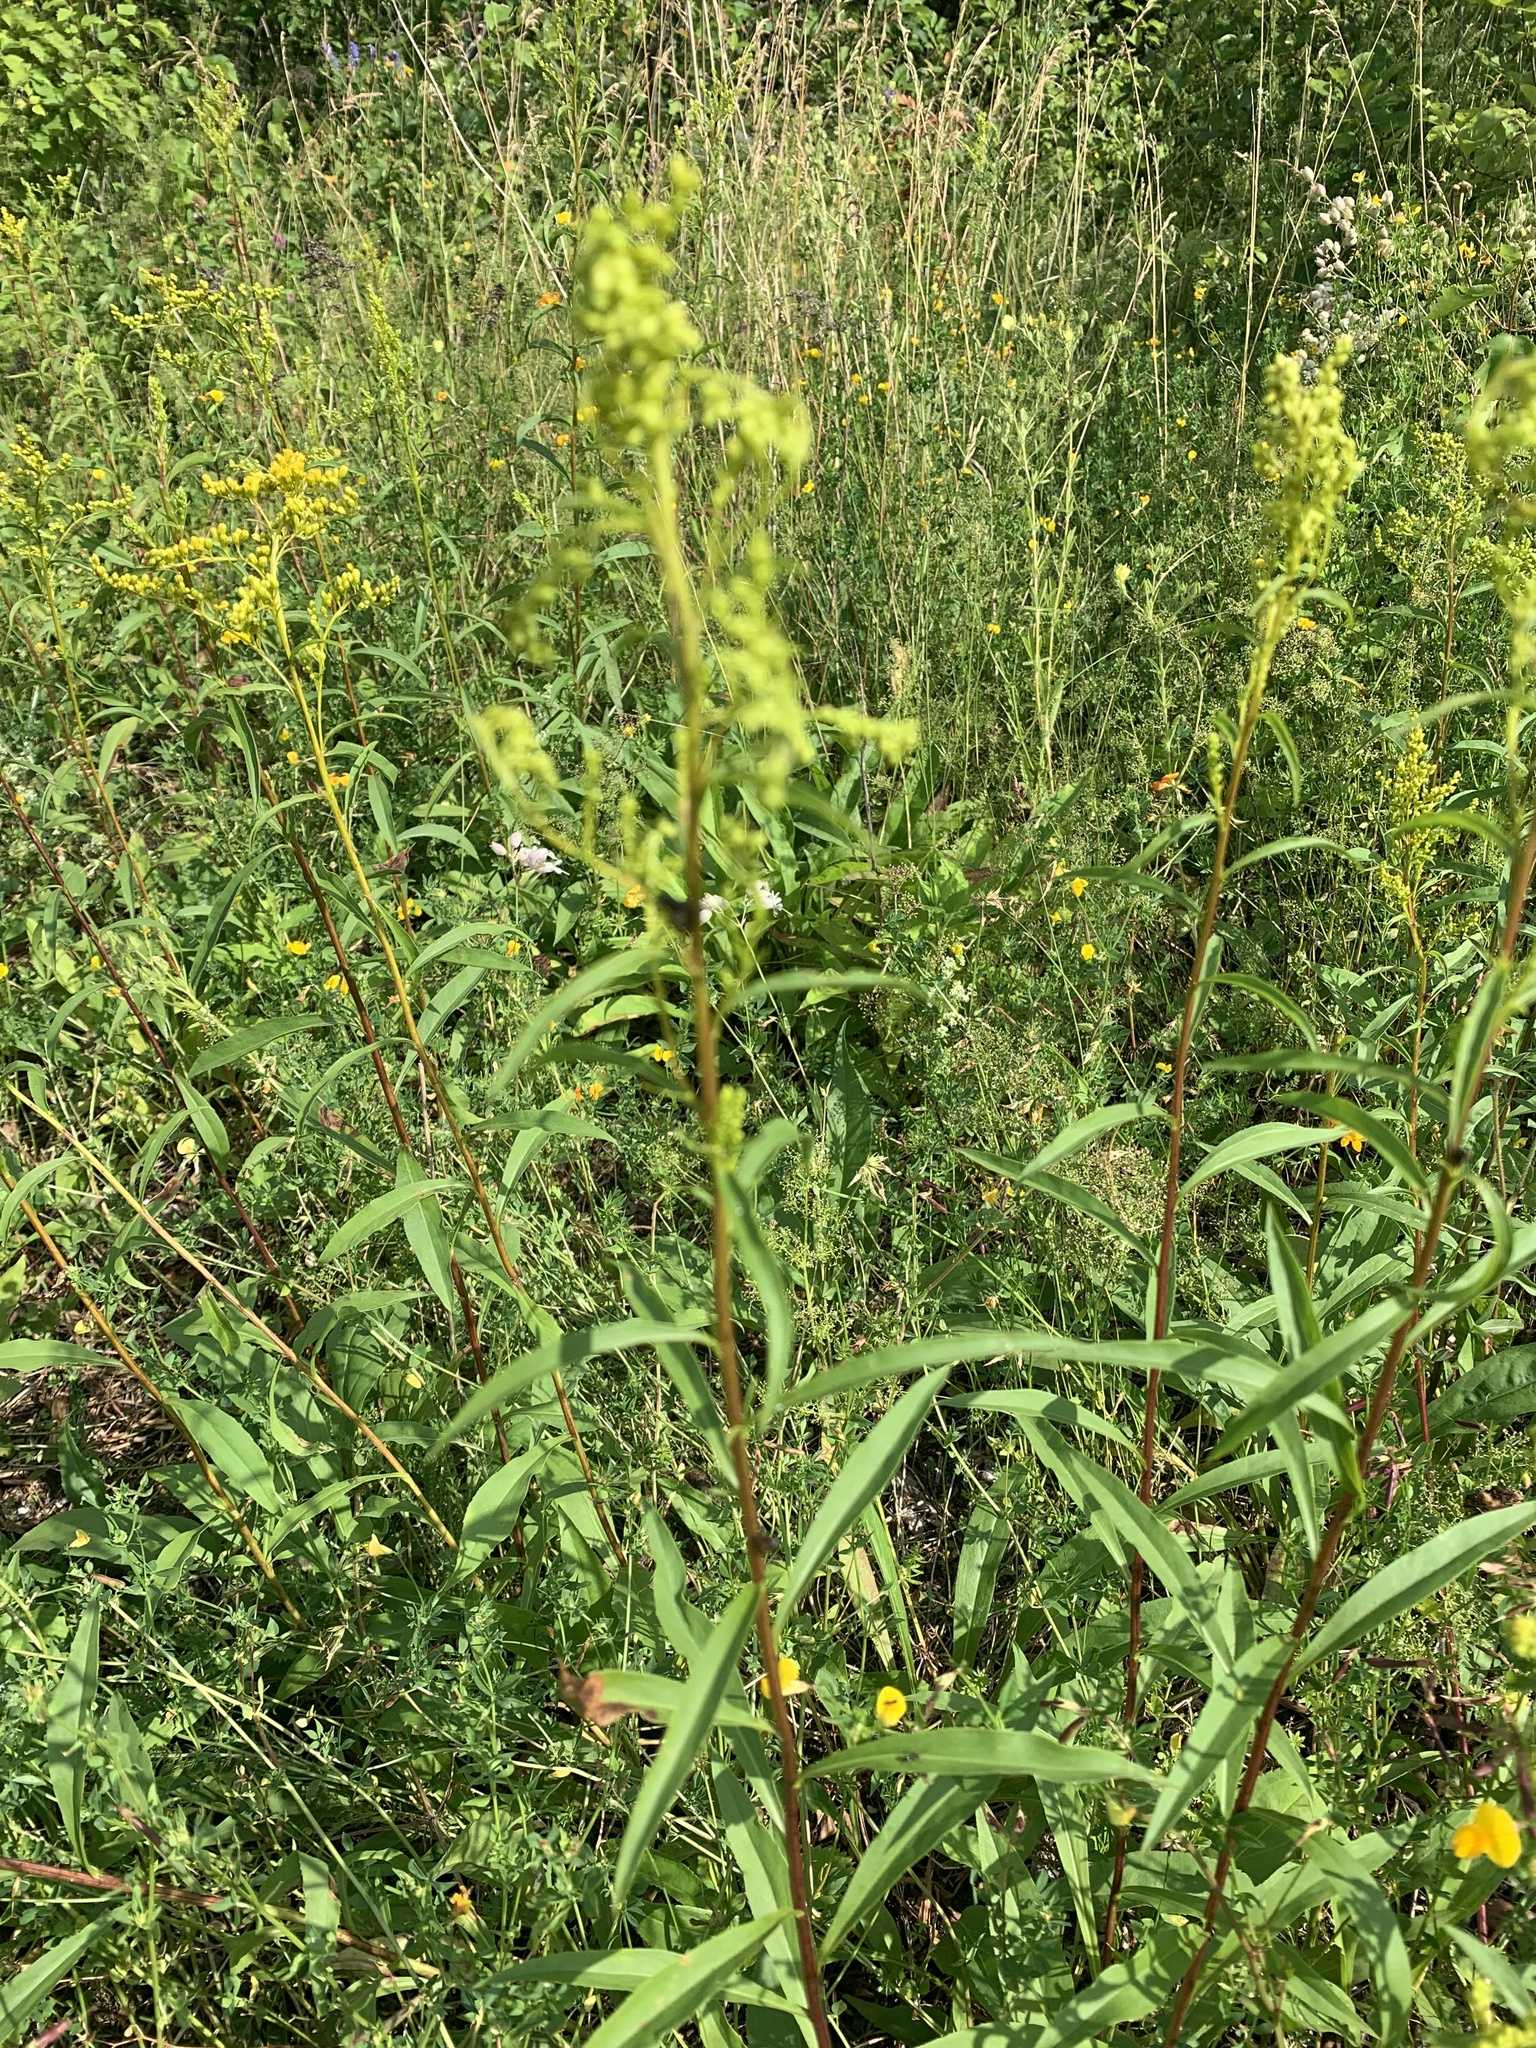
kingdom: Plantae
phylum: Tracheophyta
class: Magnoliopsida
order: Asterales
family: Asteraceae
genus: Solidago
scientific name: Solidago juncea
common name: Early goldenrod
